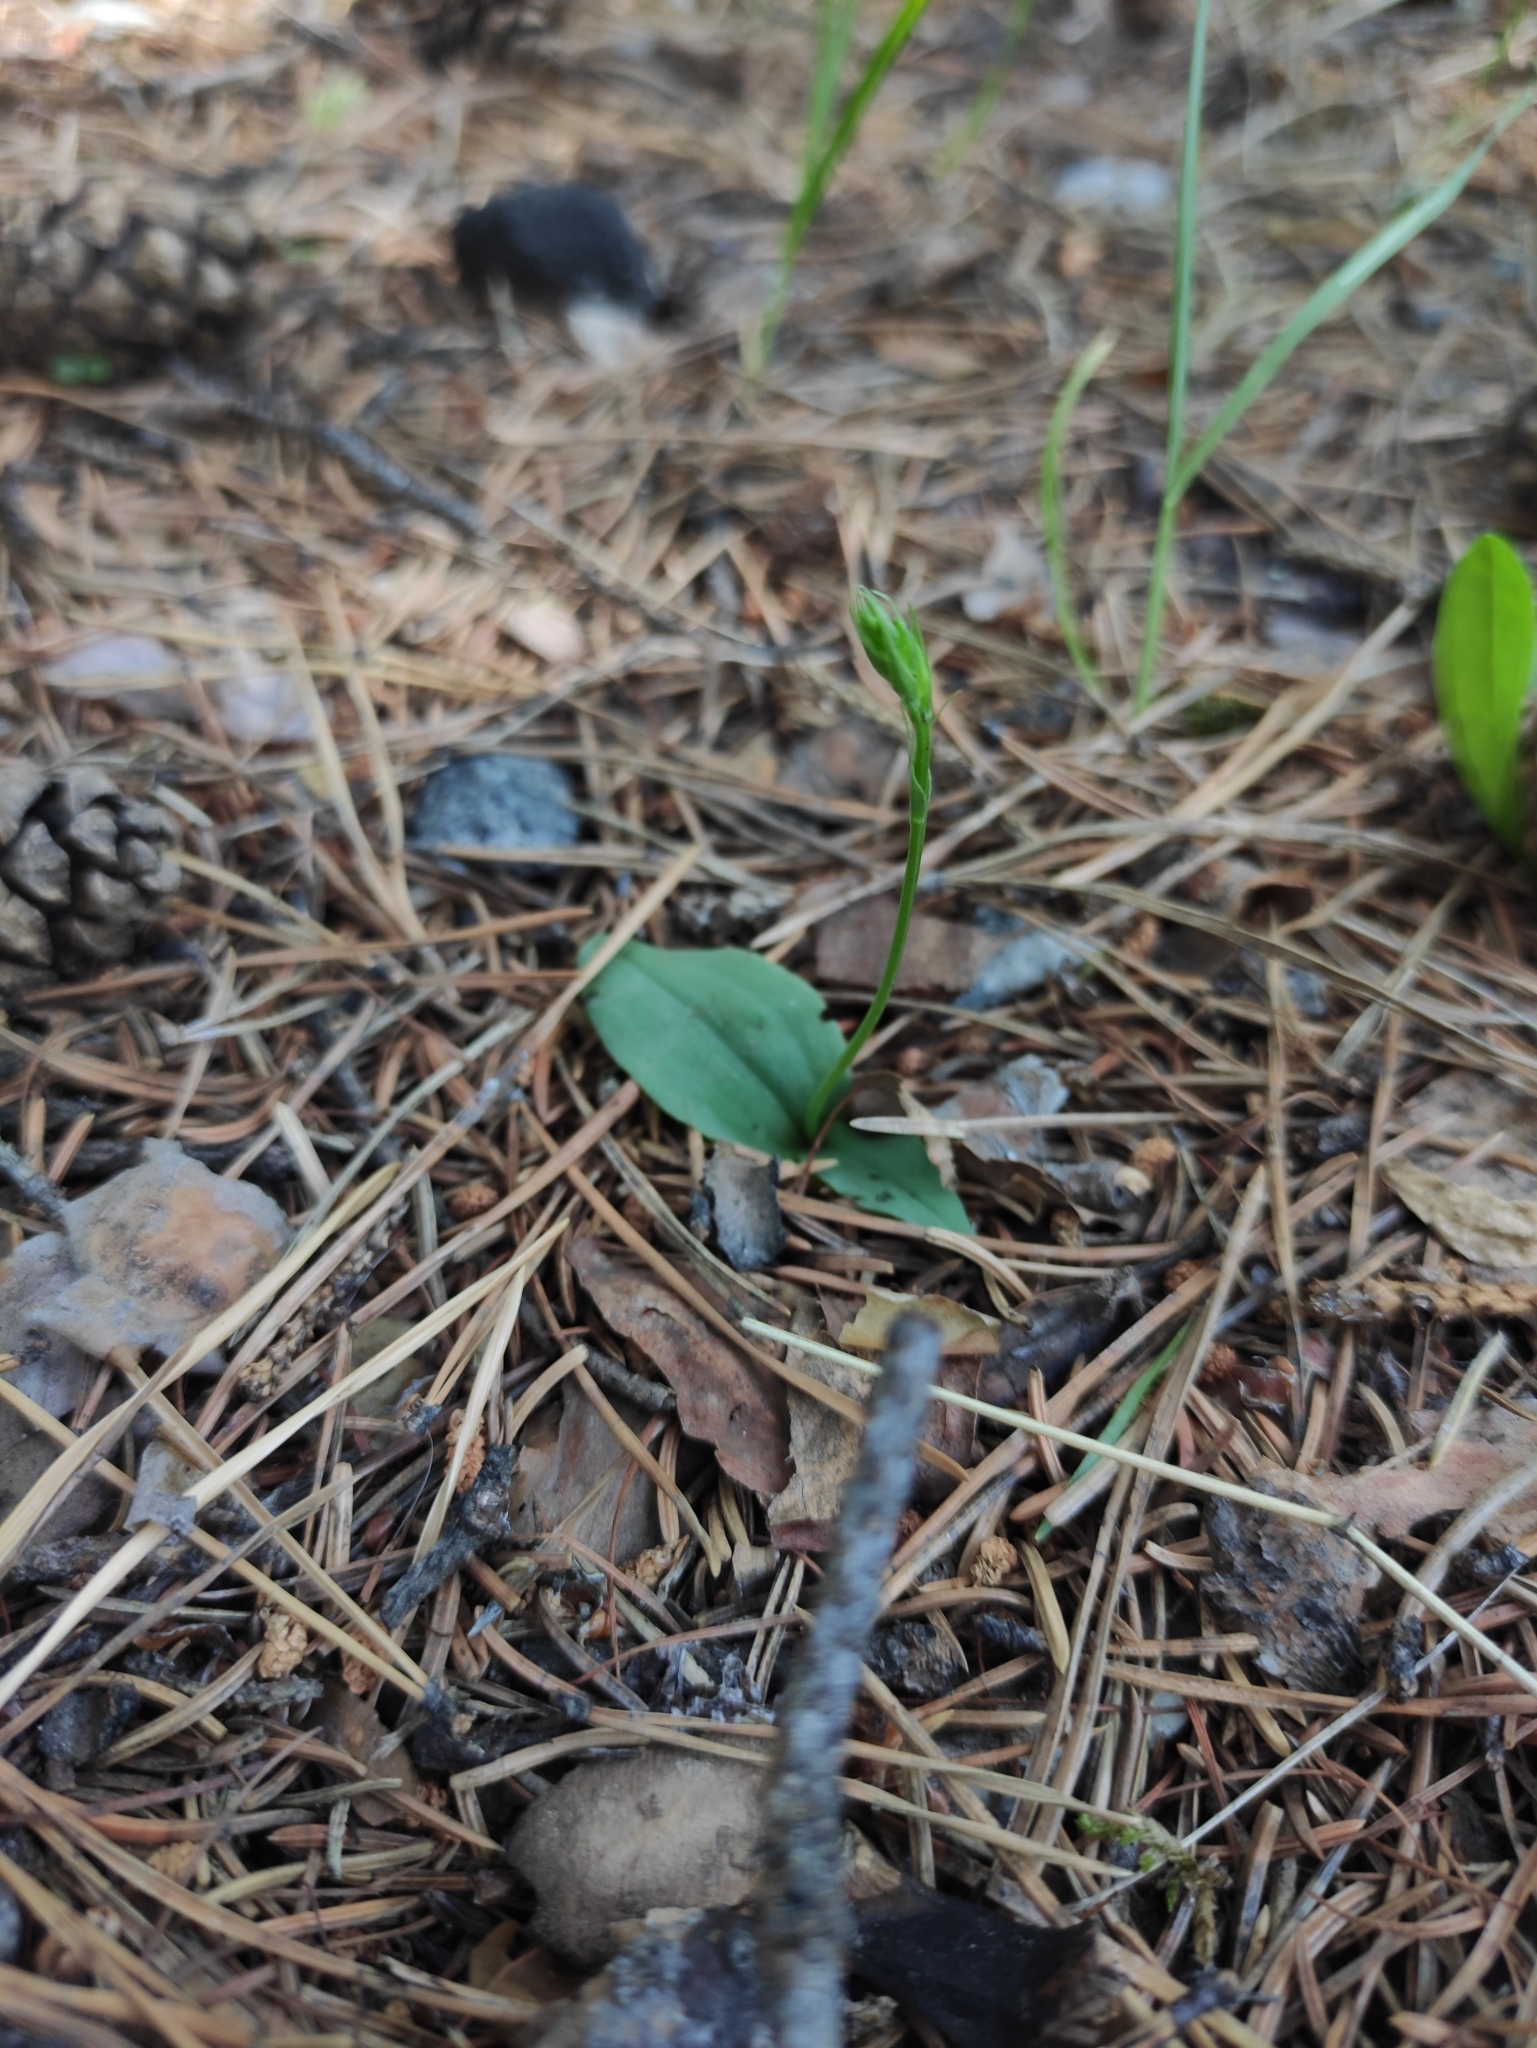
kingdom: Plantae
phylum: Tracheophyta
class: Liliopsida
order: Asparagales
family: Orchidaceae
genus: Hemipilia
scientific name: Hemipilia cucullata
